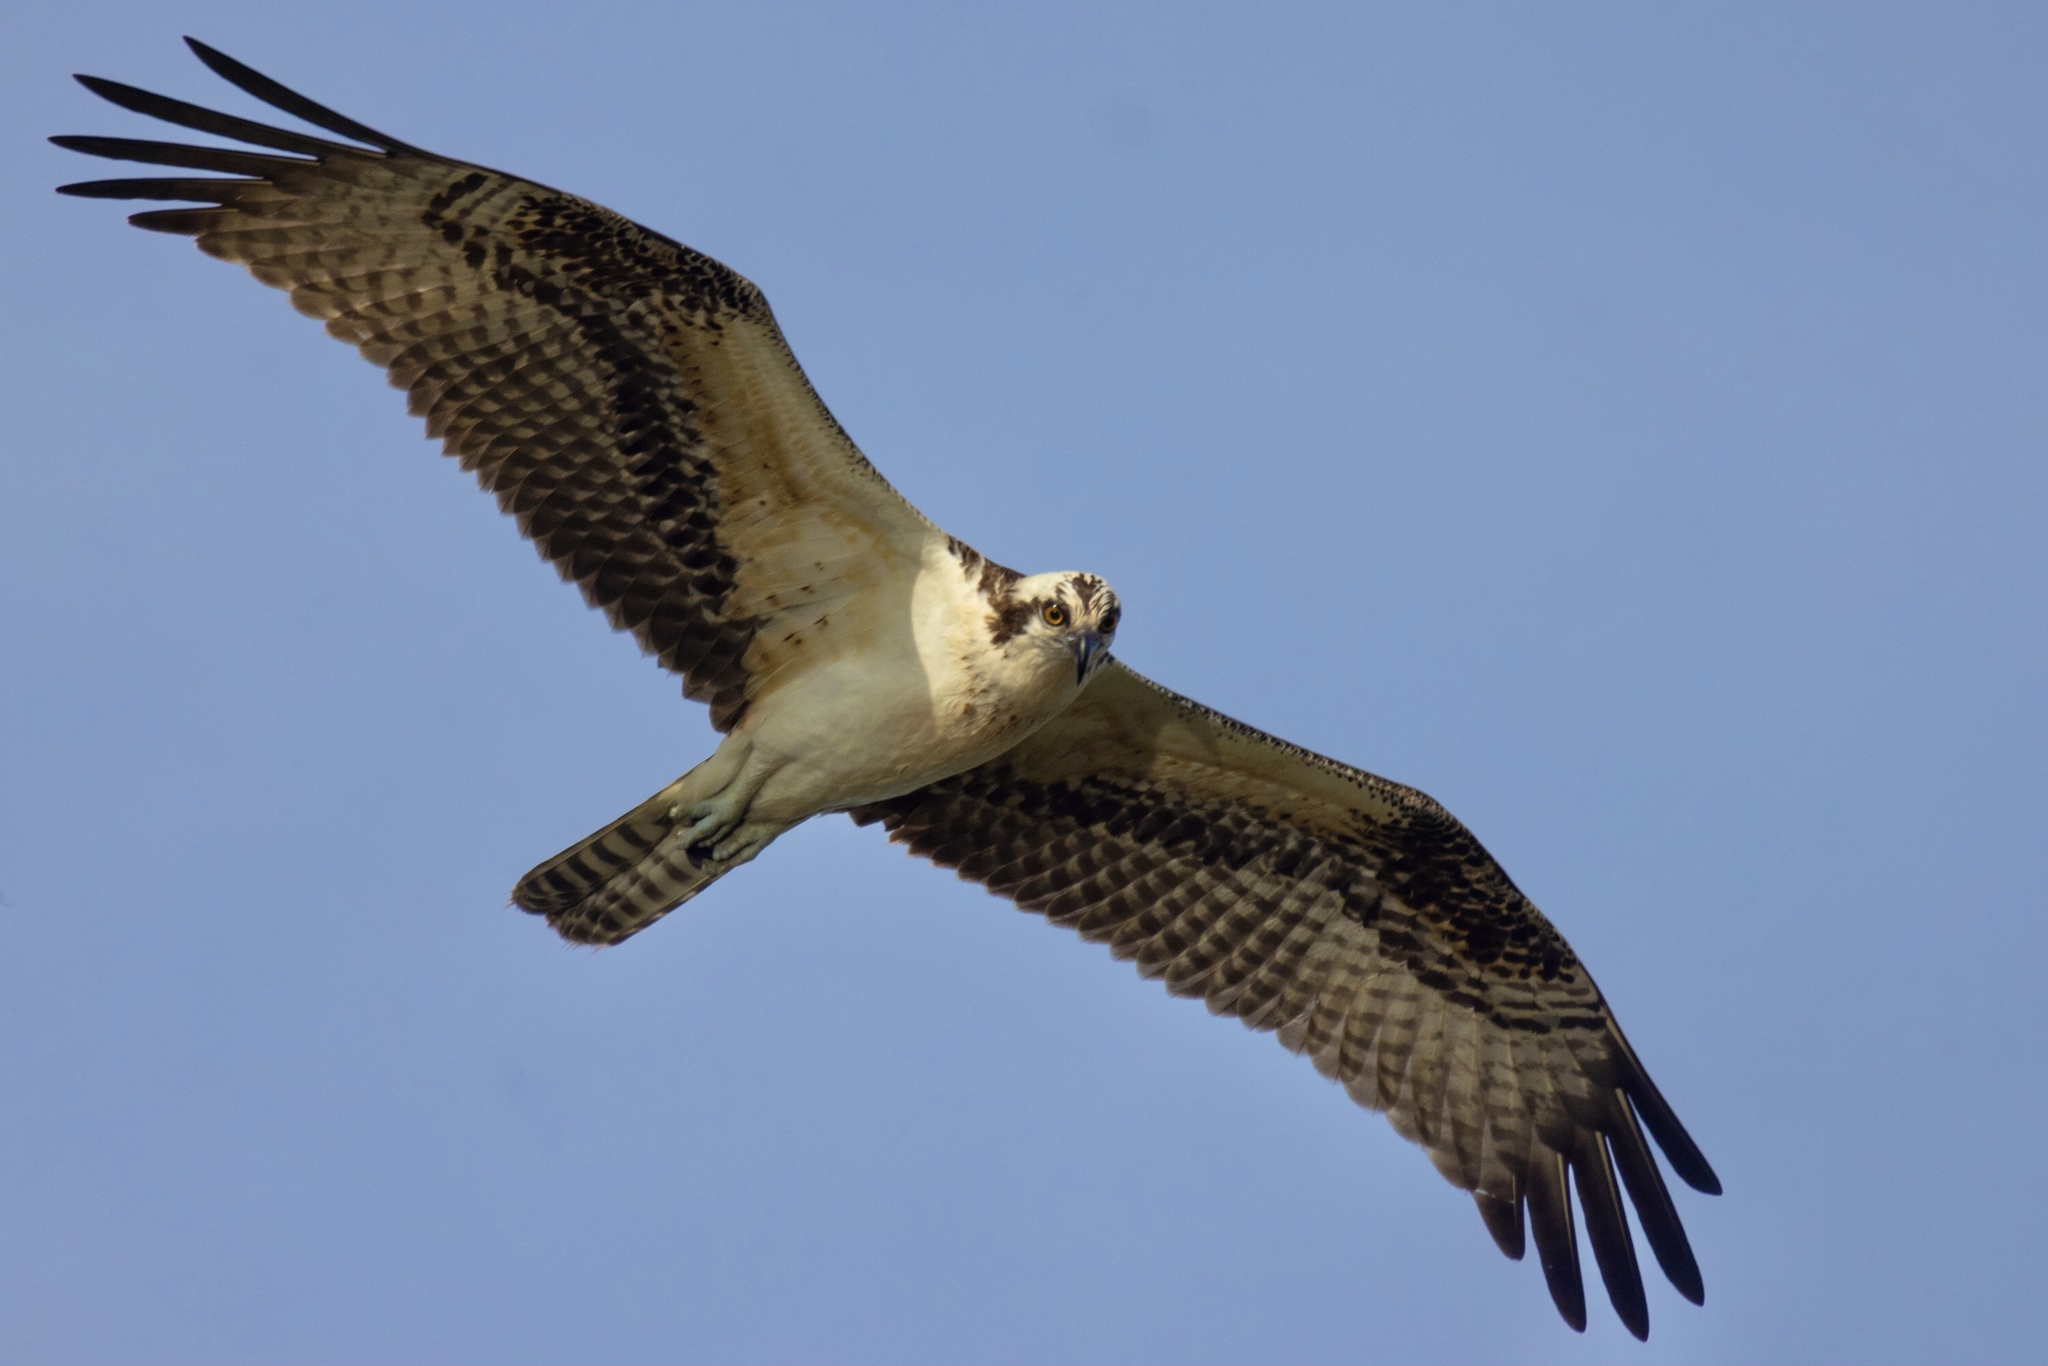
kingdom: Animalia
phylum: Chordata
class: Aves
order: Accipitriformes
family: Pandionidae
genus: Pandion
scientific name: Pandion haliaetus
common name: Osprey
